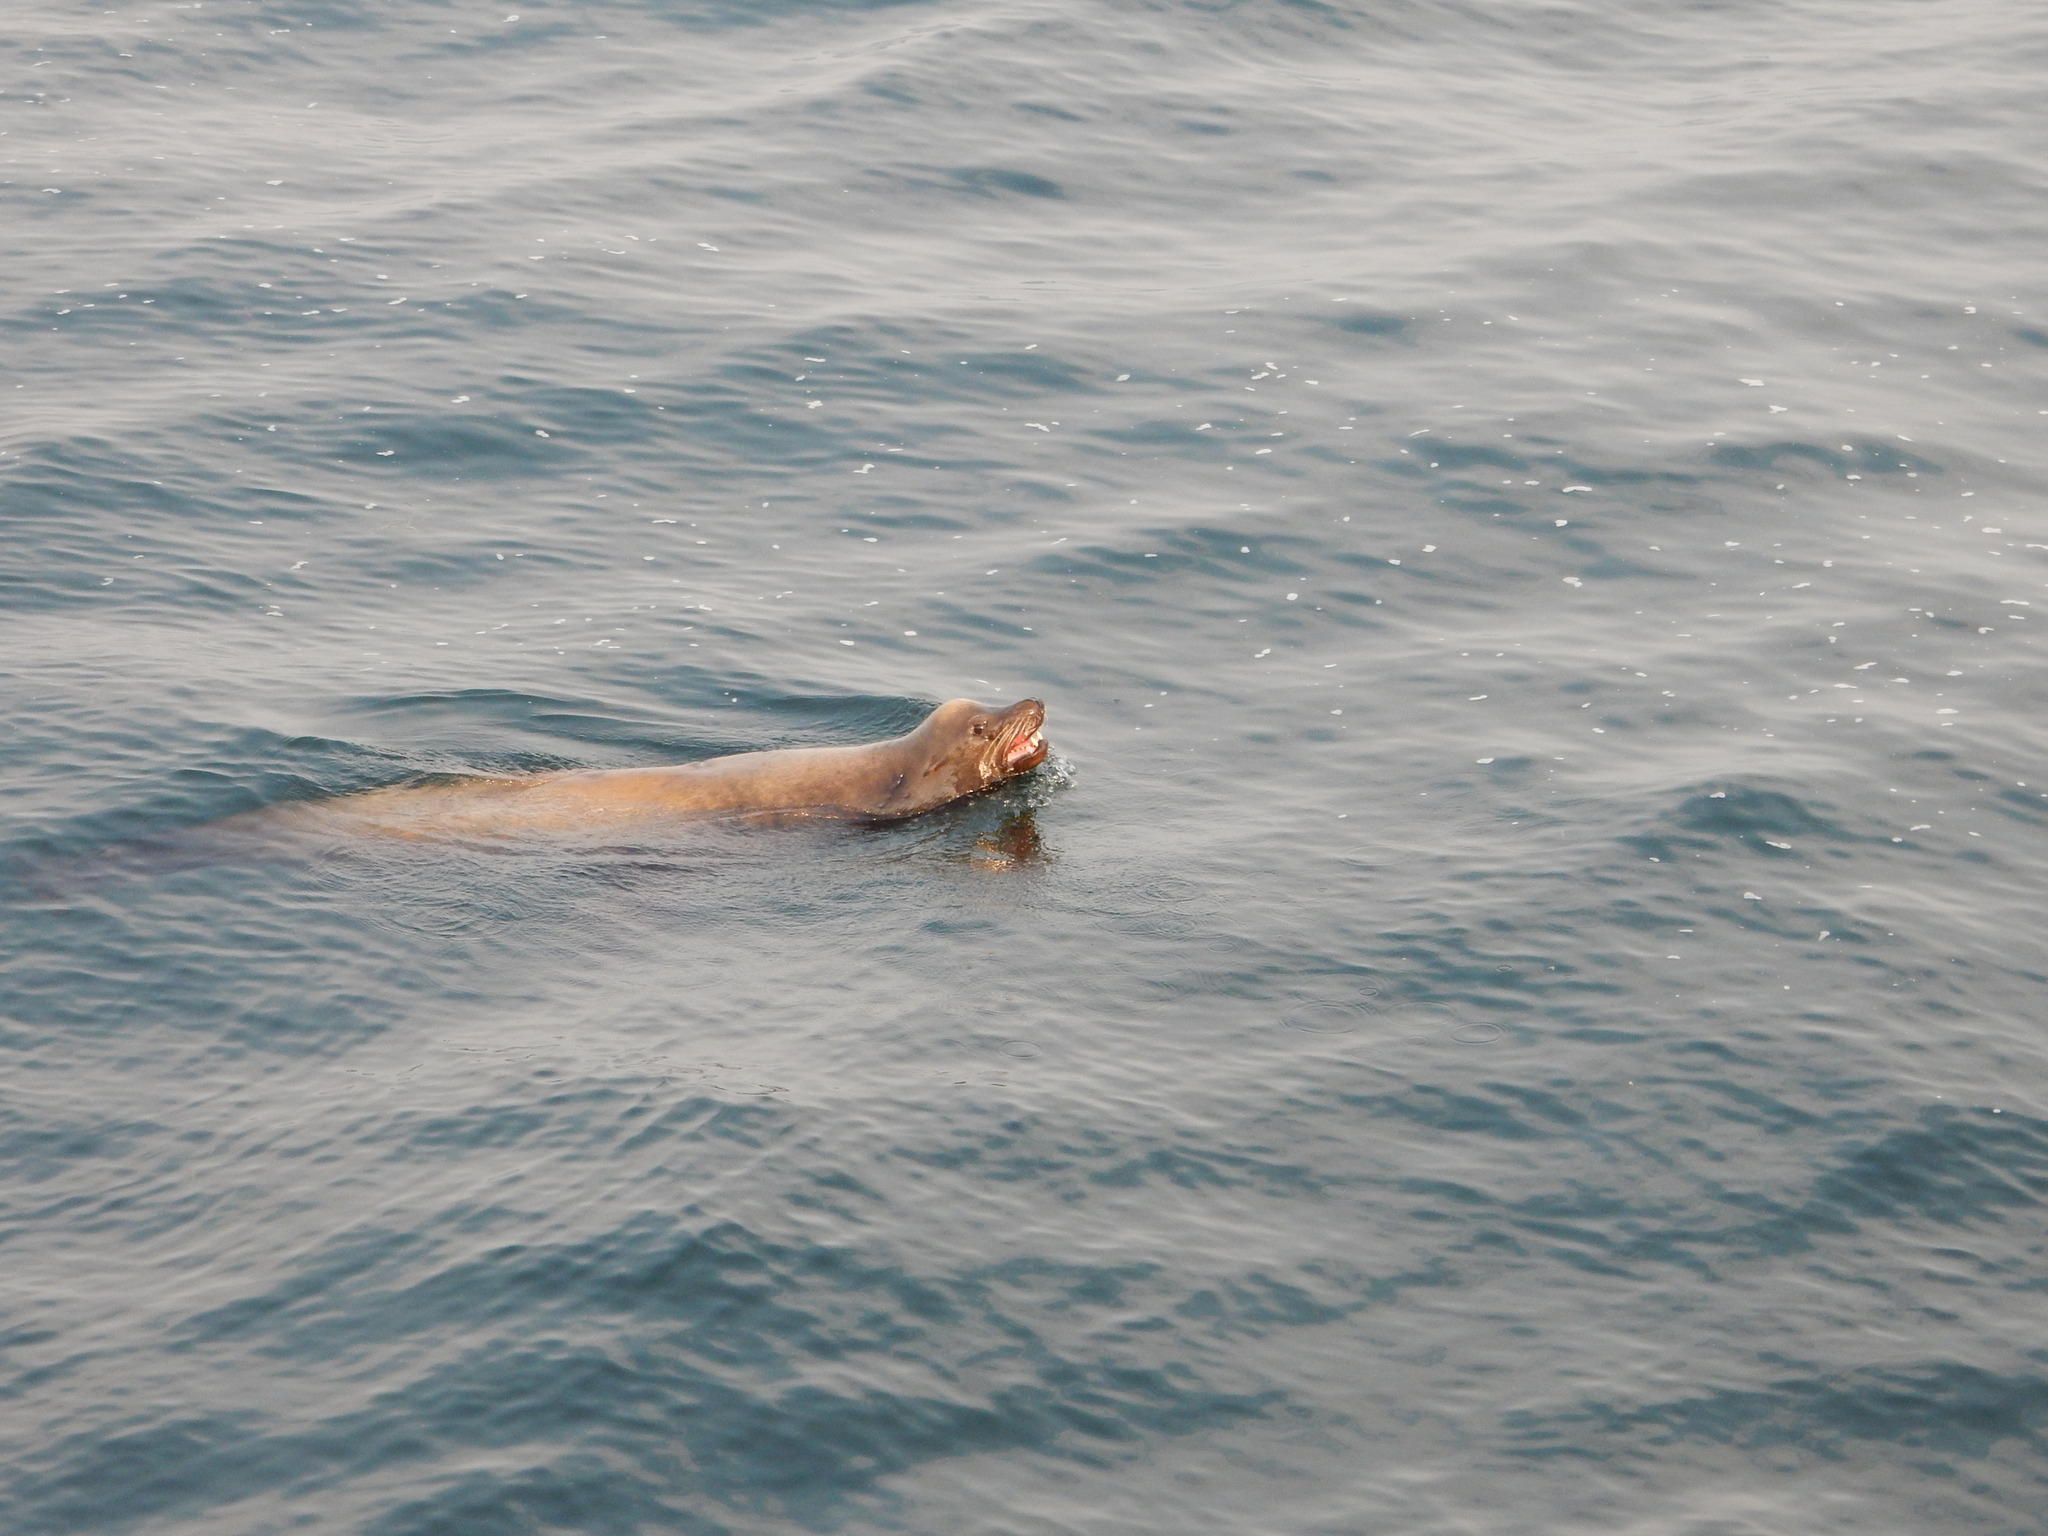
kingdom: Animalia
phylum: Chordata
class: Mammalia
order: Carnivora
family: Otariidae
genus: Zalophus
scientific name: Zalophus californianus
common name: California sea lion
